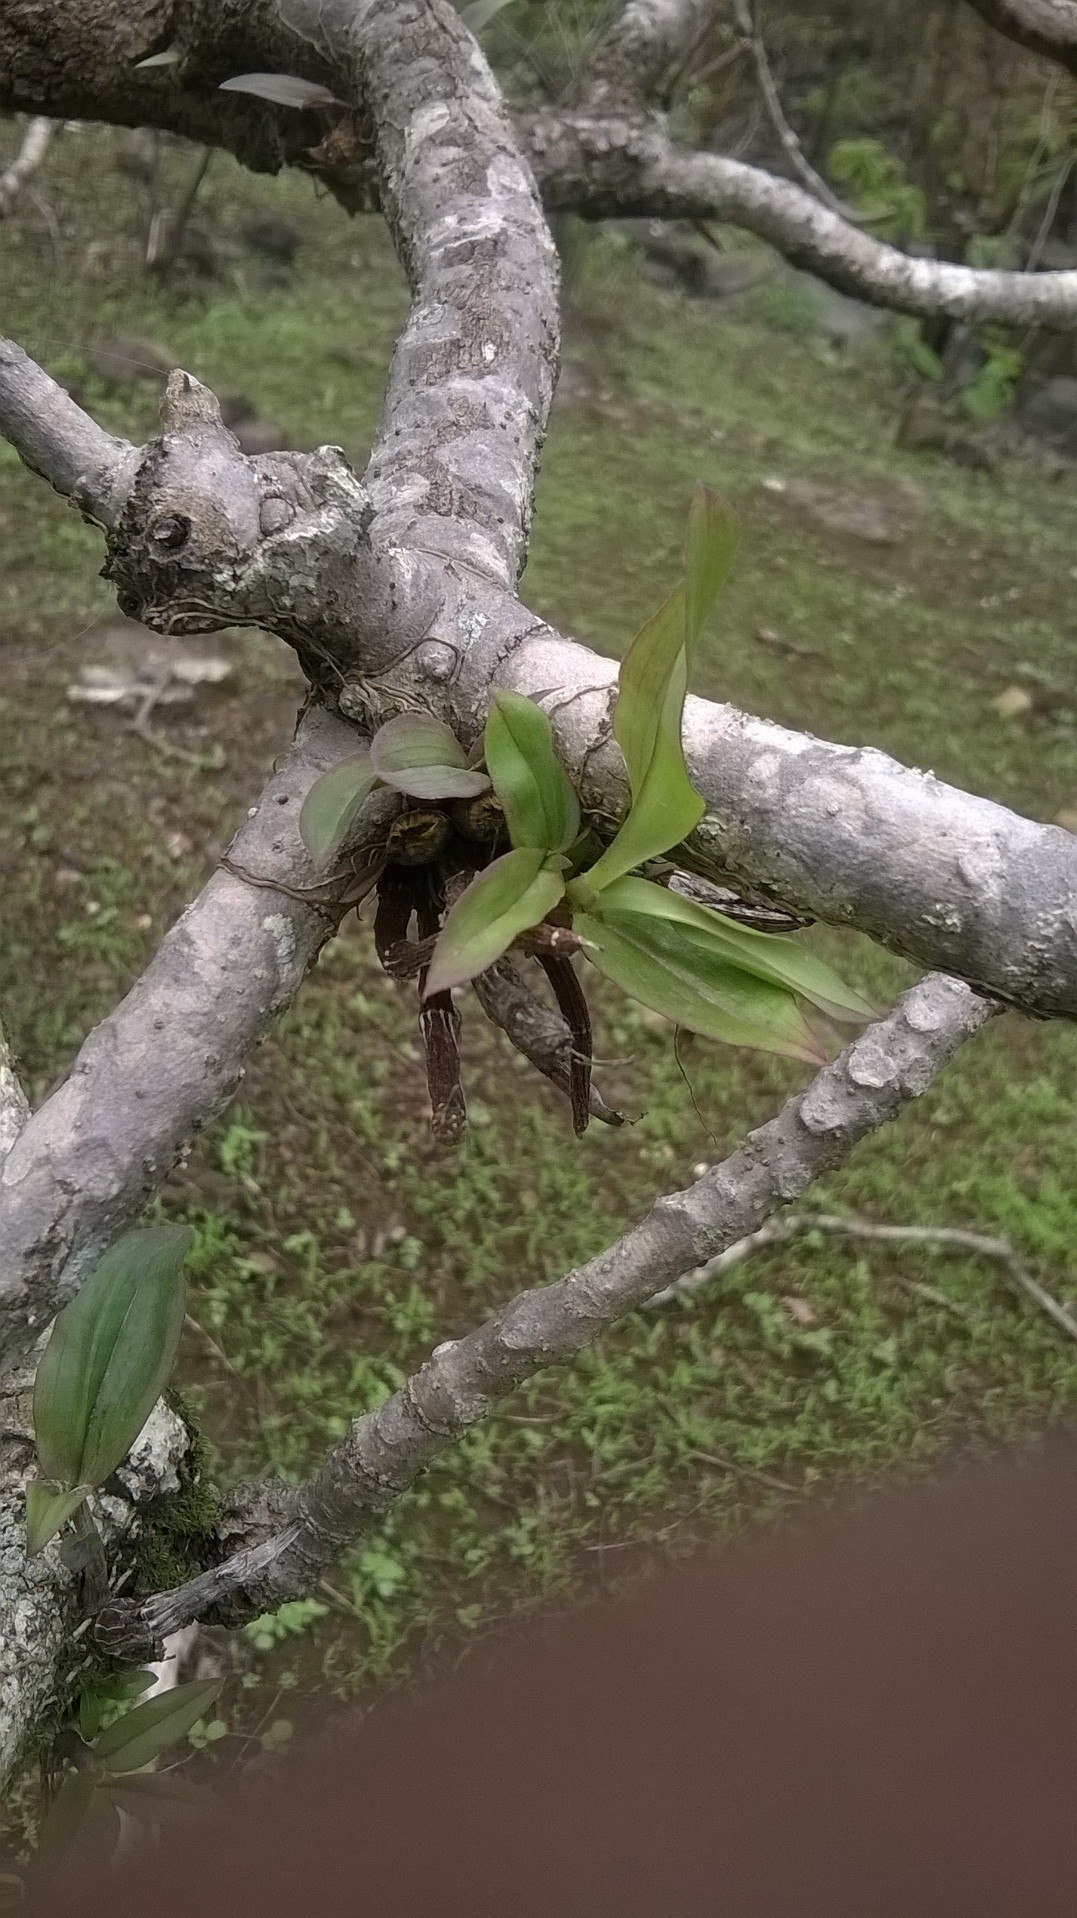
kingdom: Plantae
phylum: Tracheophyta
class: Liliopsida
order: Asparagales
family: Orchidaceae
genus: Dendrobium
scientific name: Dendrobium ovatum
